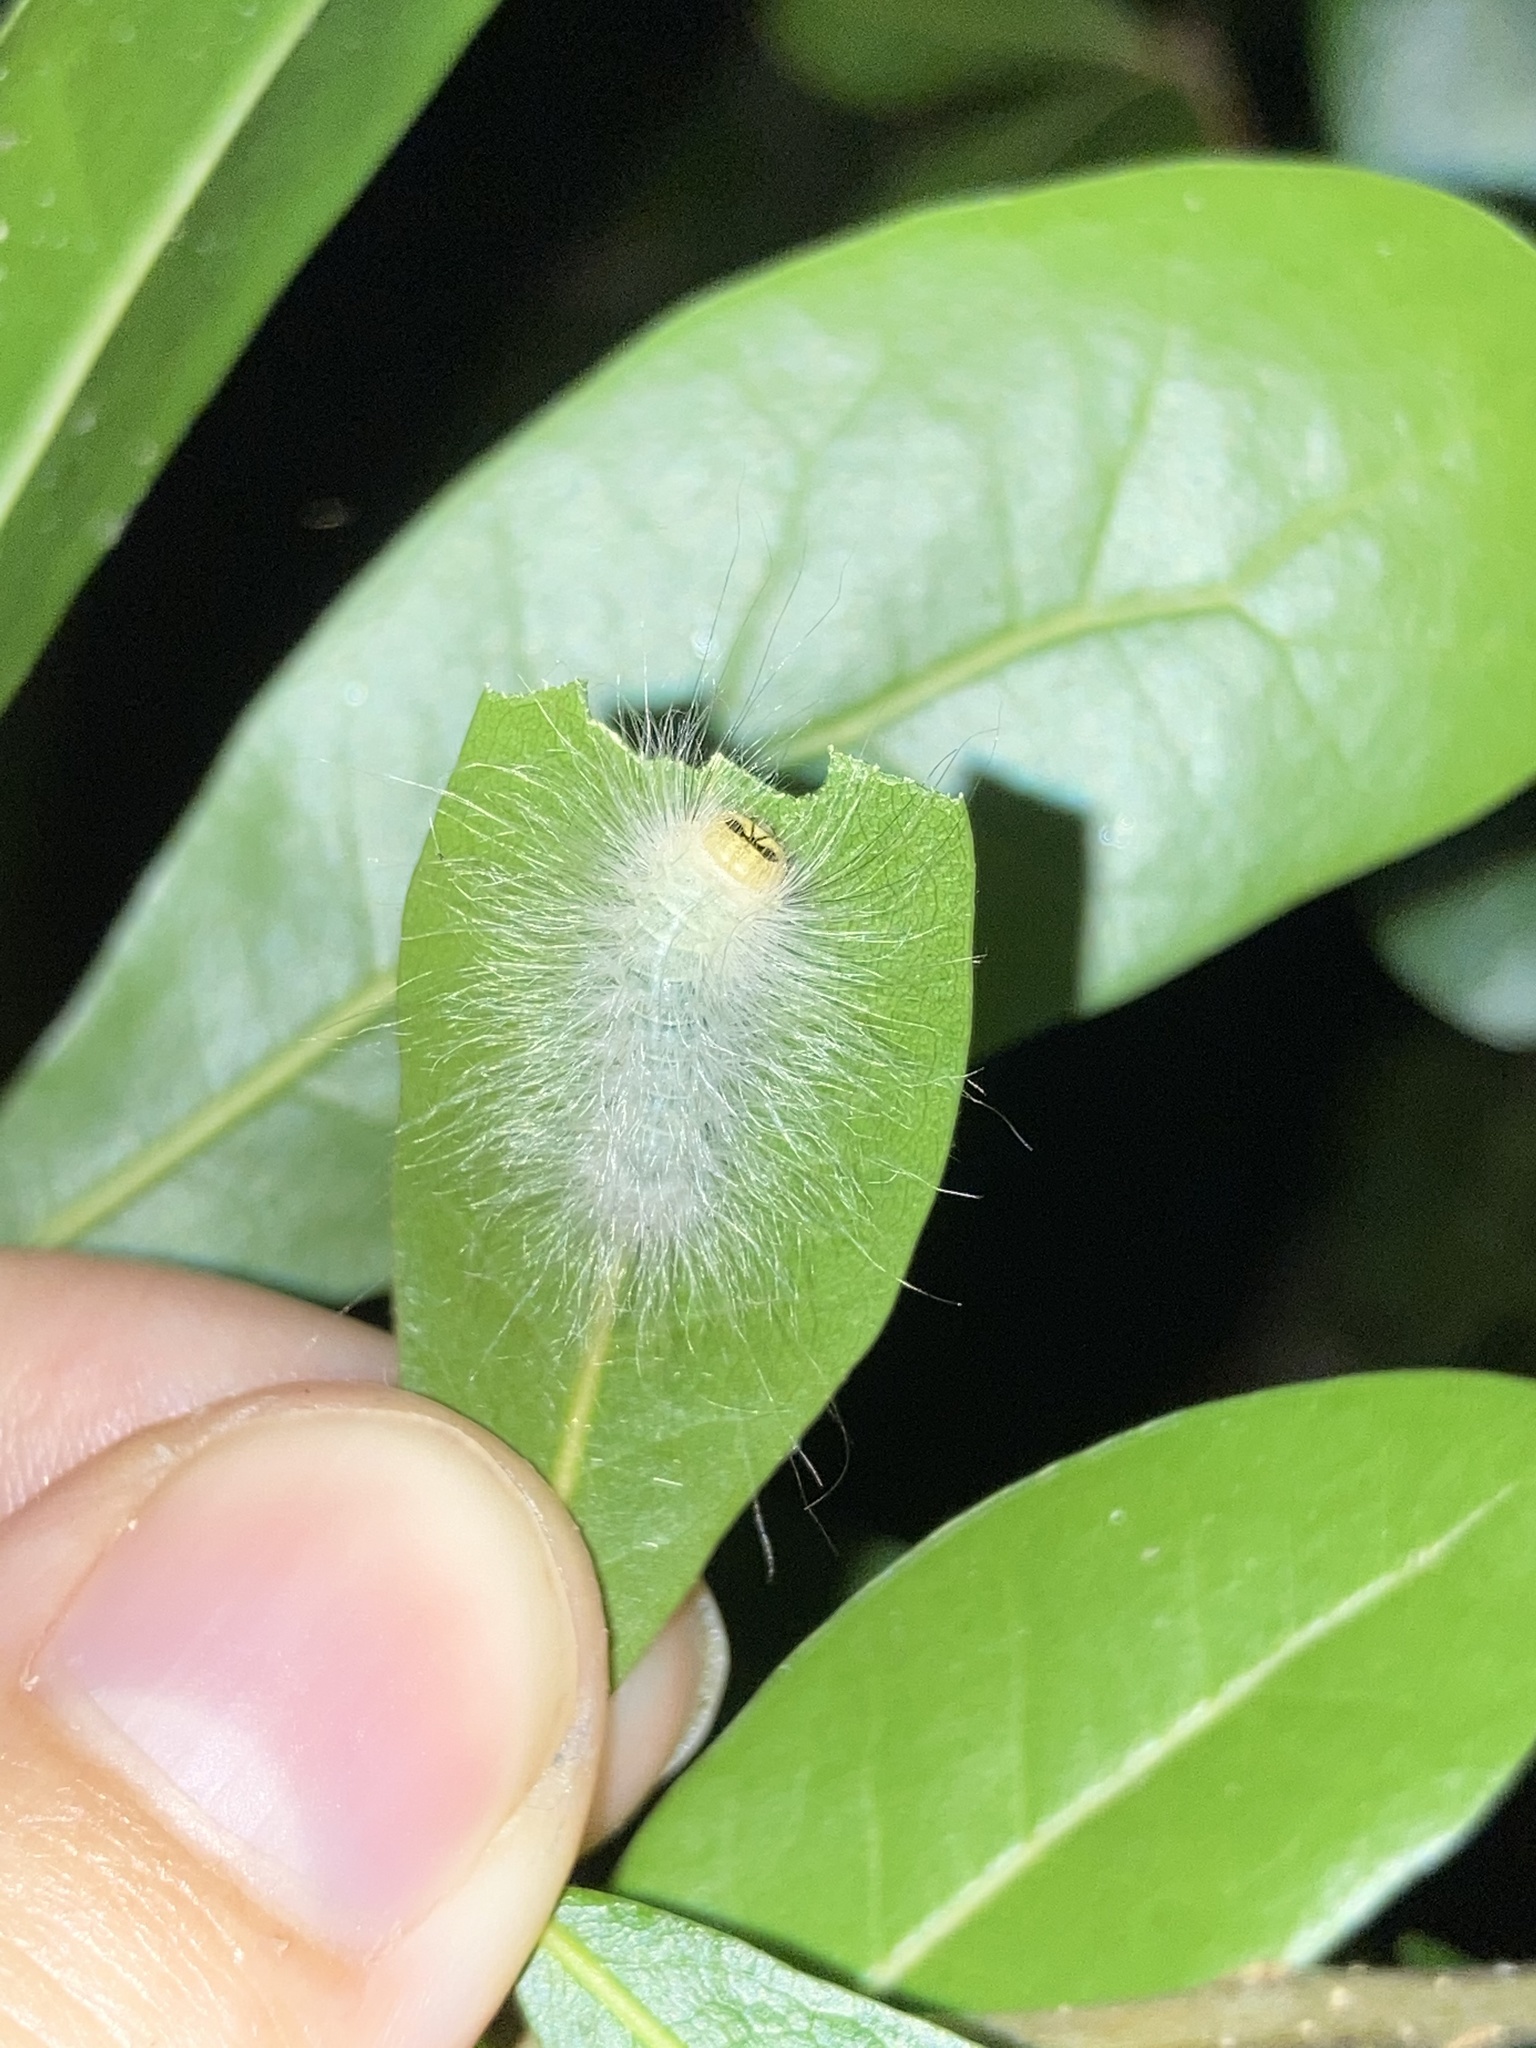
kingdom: Animalia
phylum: Arthropoda
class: Insecta
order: Lepidoptera
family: Noctuidae
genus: Charadra
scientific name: Charadra deridens
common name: Marbled tuffet
